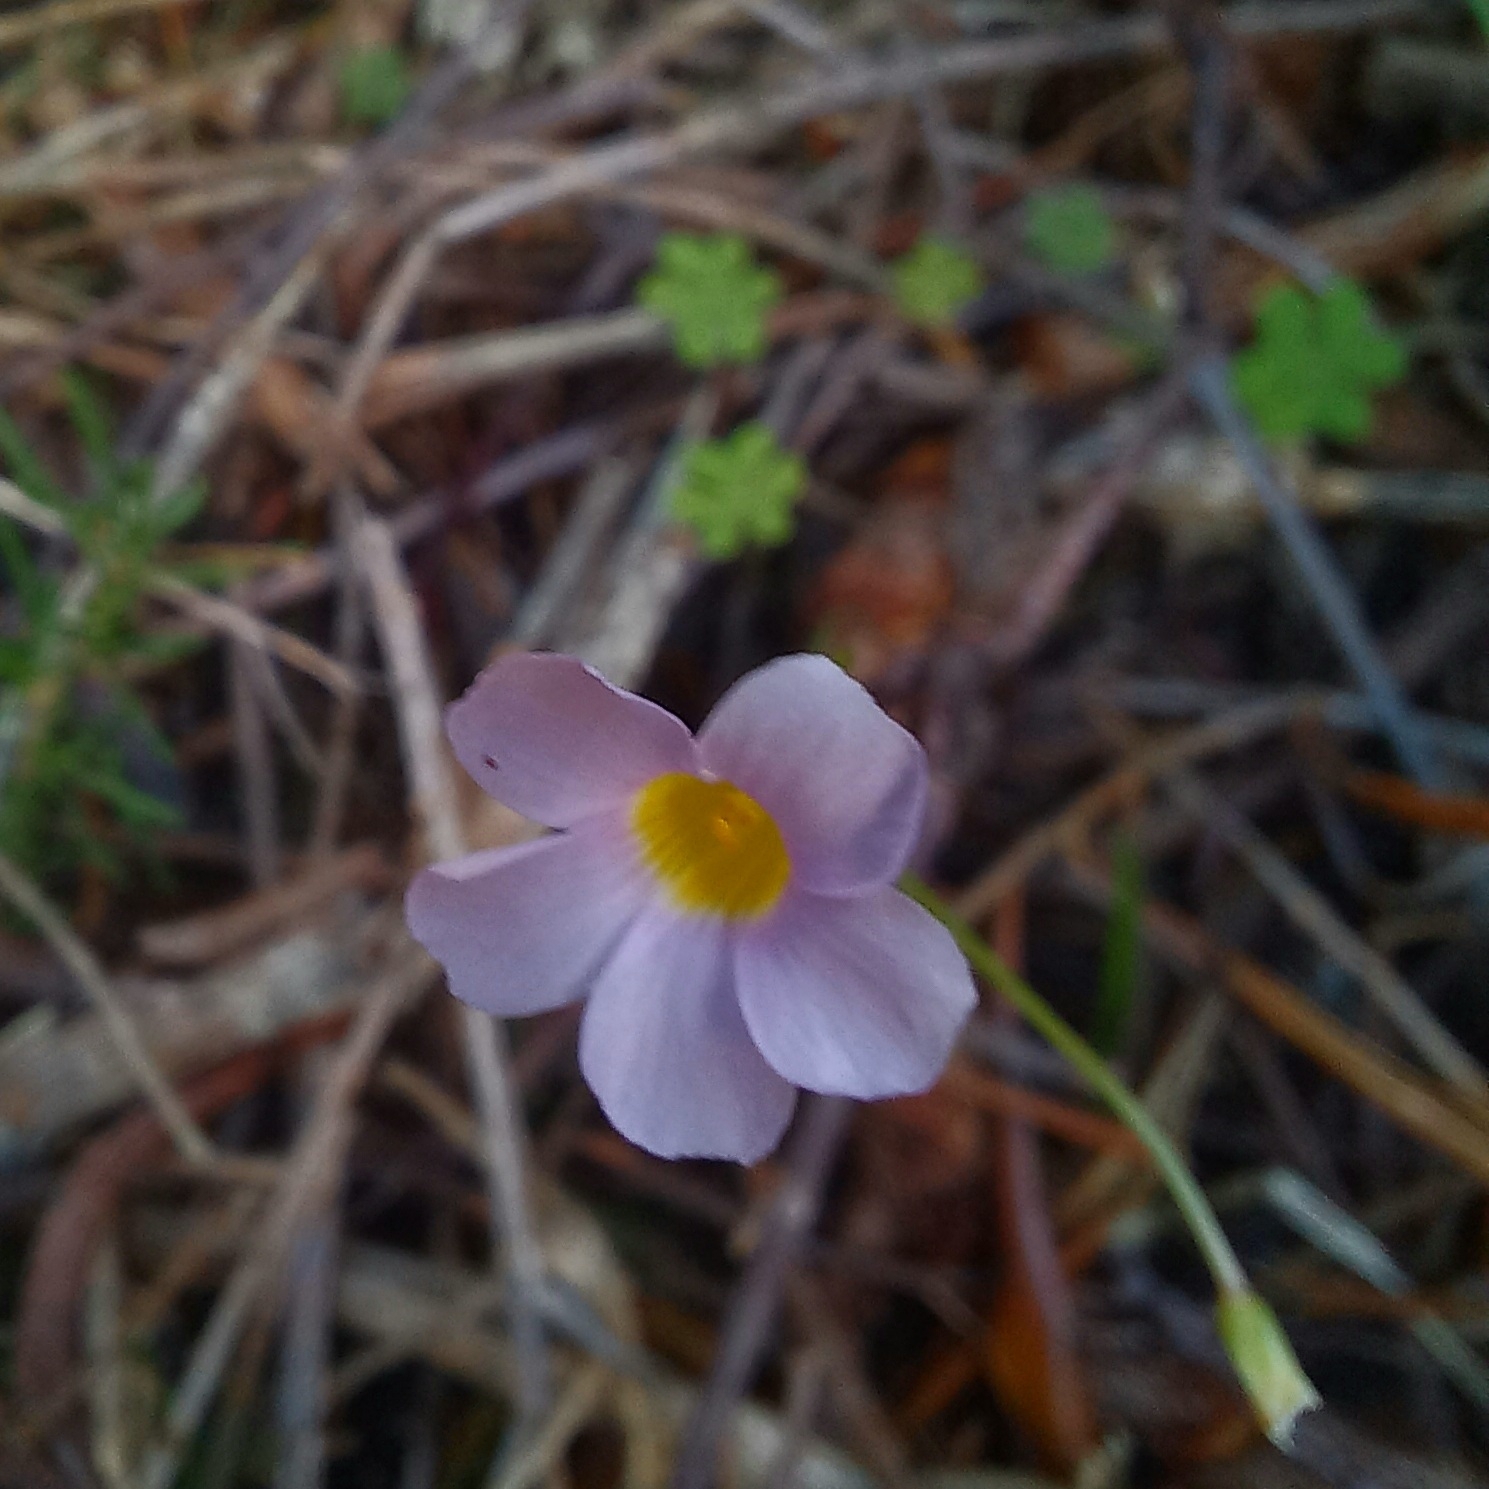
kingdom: Plantae
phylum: Tracheophyta
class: Magnoliopsida
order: Oxalidales
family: Oxalidaceae
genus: Oxalis
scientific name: Oxalis caprina
